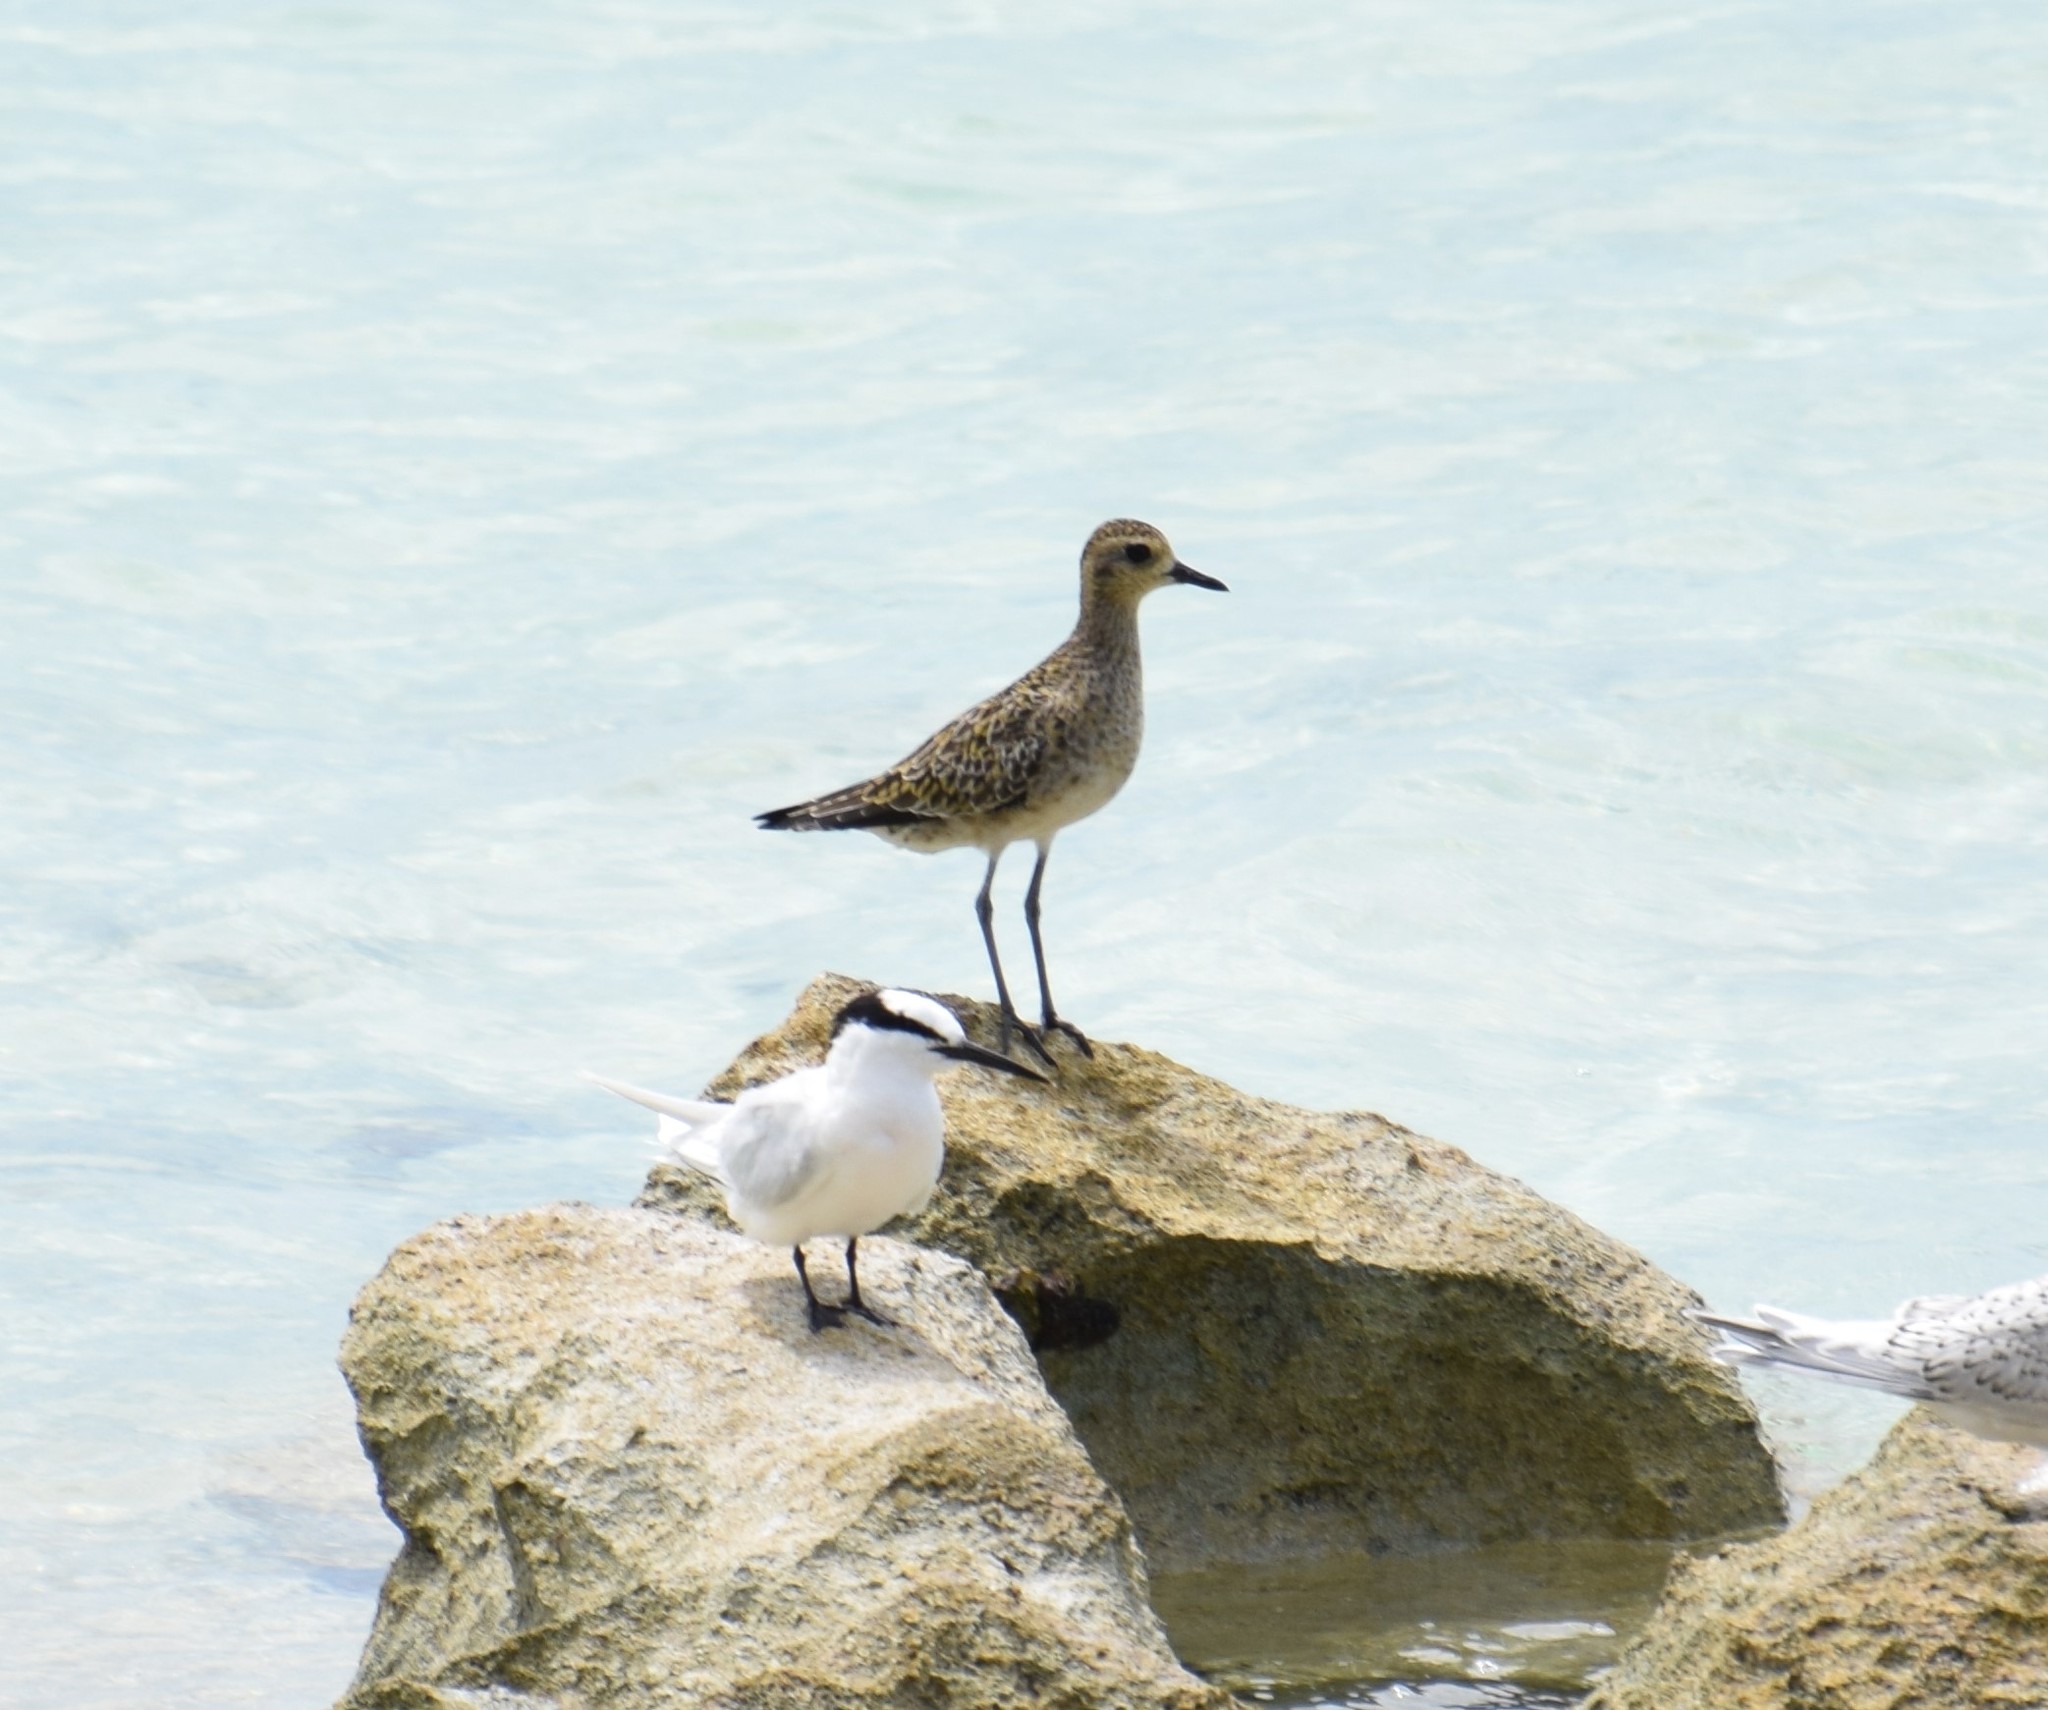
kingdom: Animalia
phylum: Chordata
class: Aves
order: Charadriiformes
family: Charadriidae
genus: Pluvialis
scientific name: Pluvialis fulva
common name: Pacific golden plover
